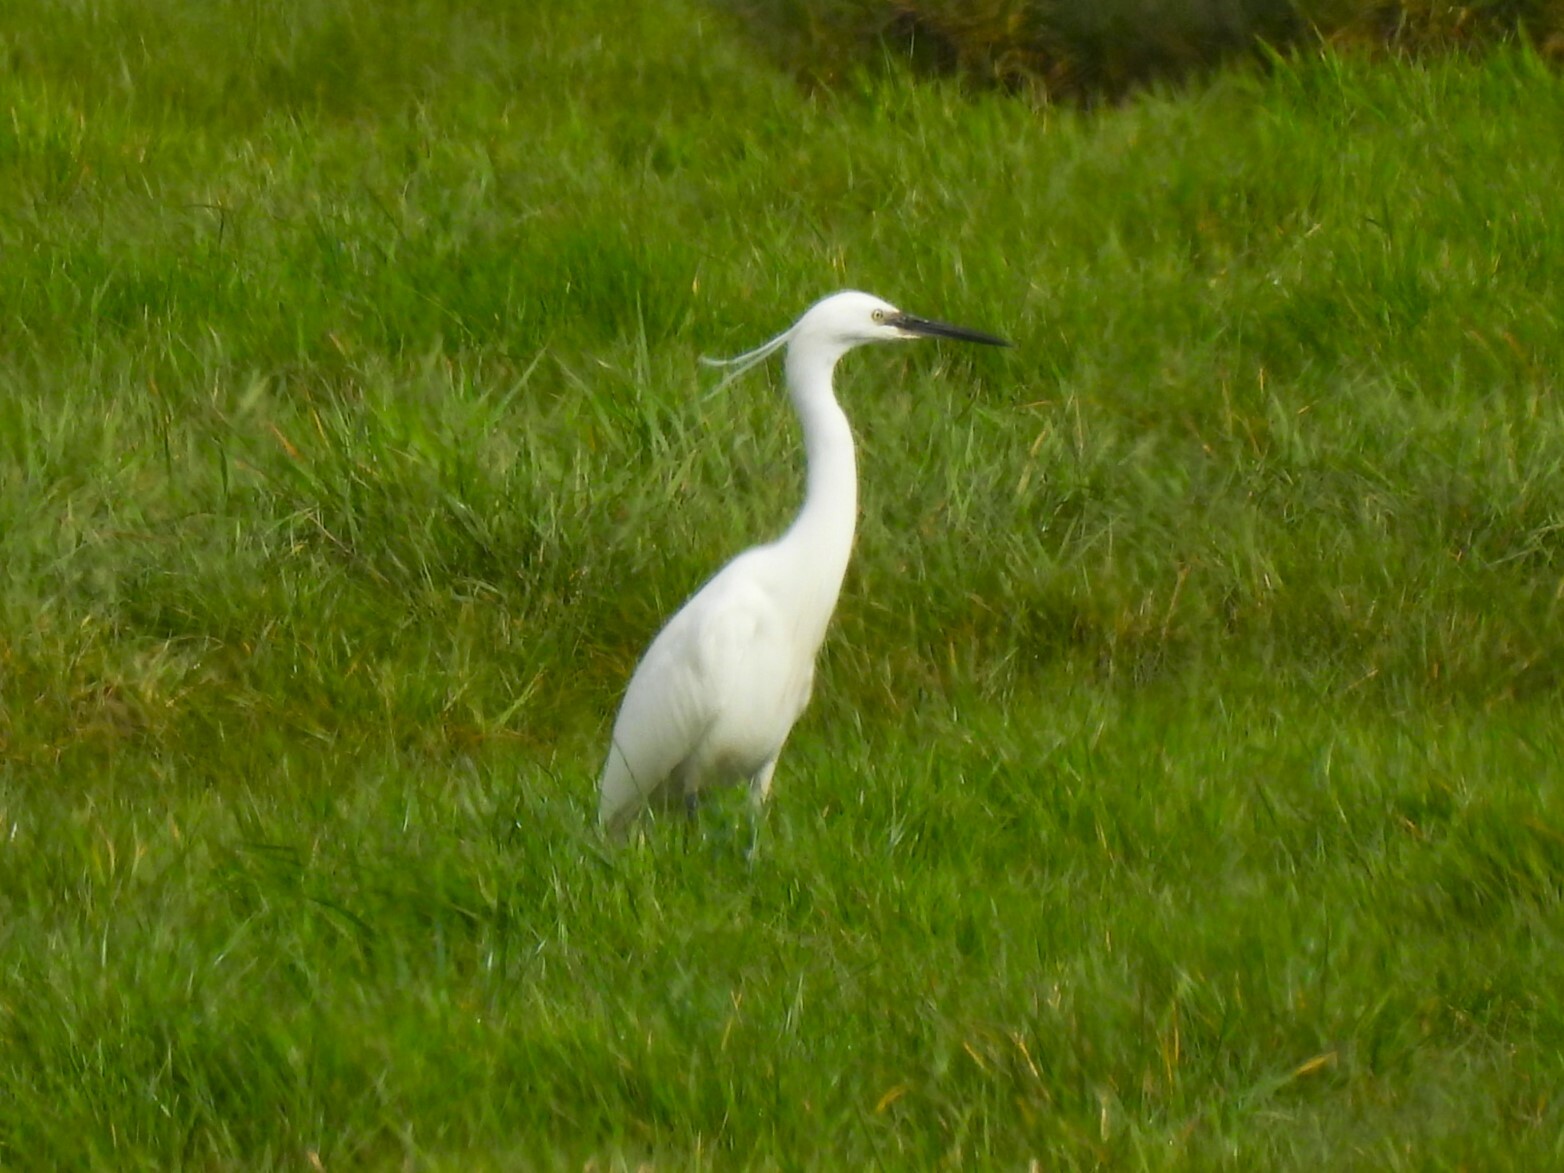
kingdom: Animalia
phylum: Chordata
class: Aves
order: Pelecaniformes
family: Ardeidae
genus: Egretta
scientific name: Egretta garzetta
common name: Little egret
